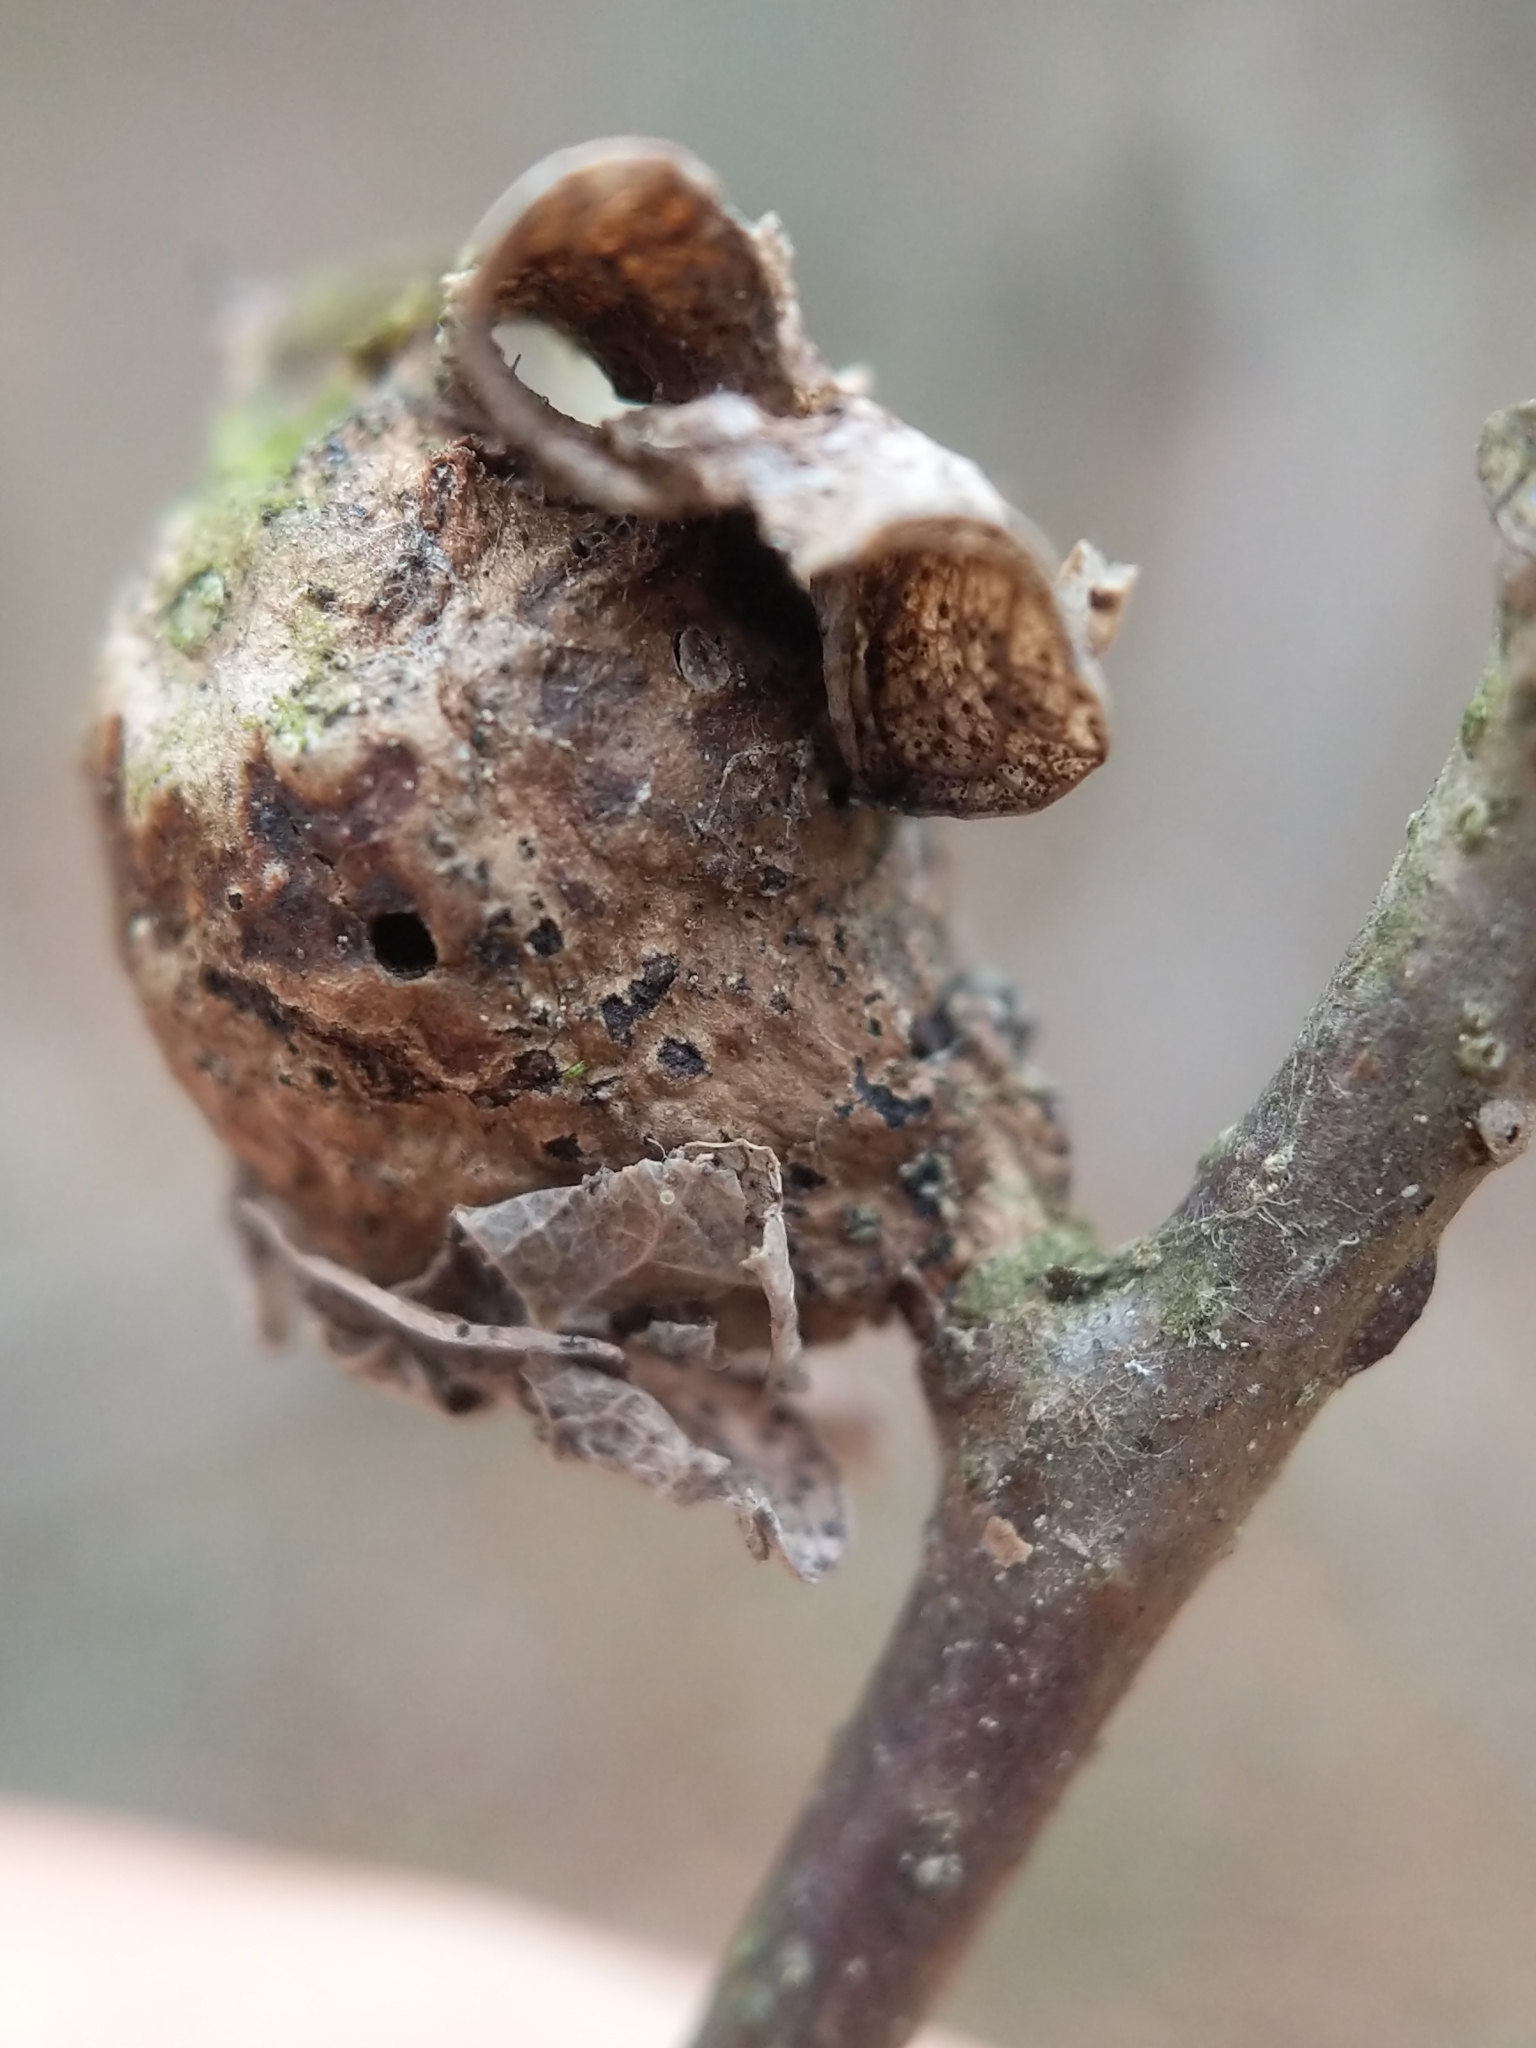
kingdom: Animalia
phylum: Arthropoda
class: Insecta
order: Hymenoptera
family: Cynipidae
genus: Andricus
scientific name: Andricus
